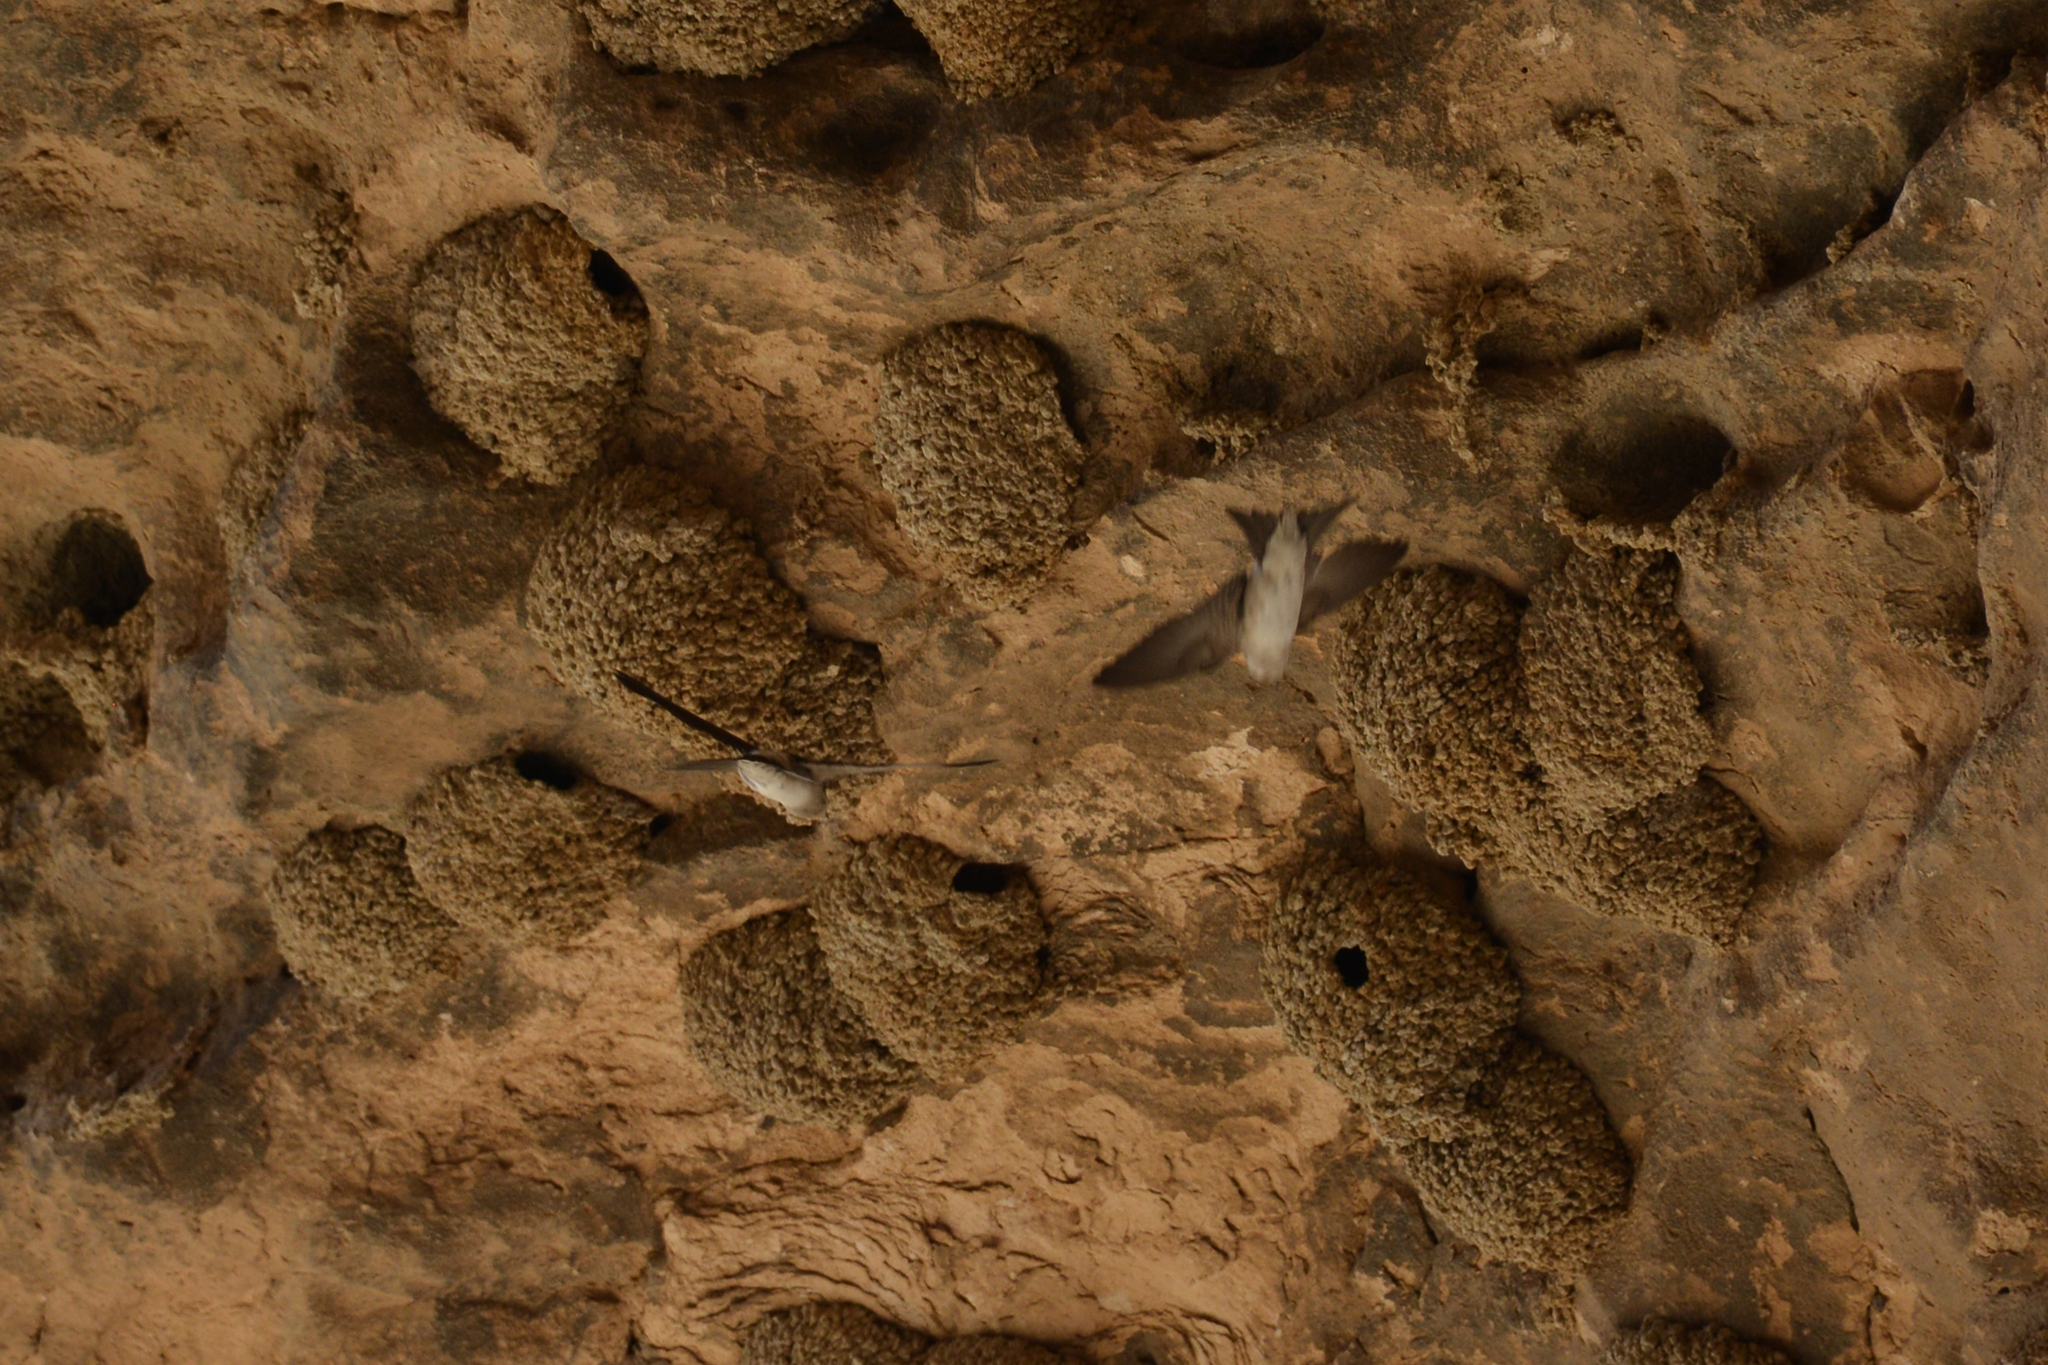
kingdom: Animalia
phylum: Chordata
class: Aves
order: Passeriformes
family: Hirundinidae
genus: Delichon
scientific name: Delichon urbicum
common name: Common house martin
